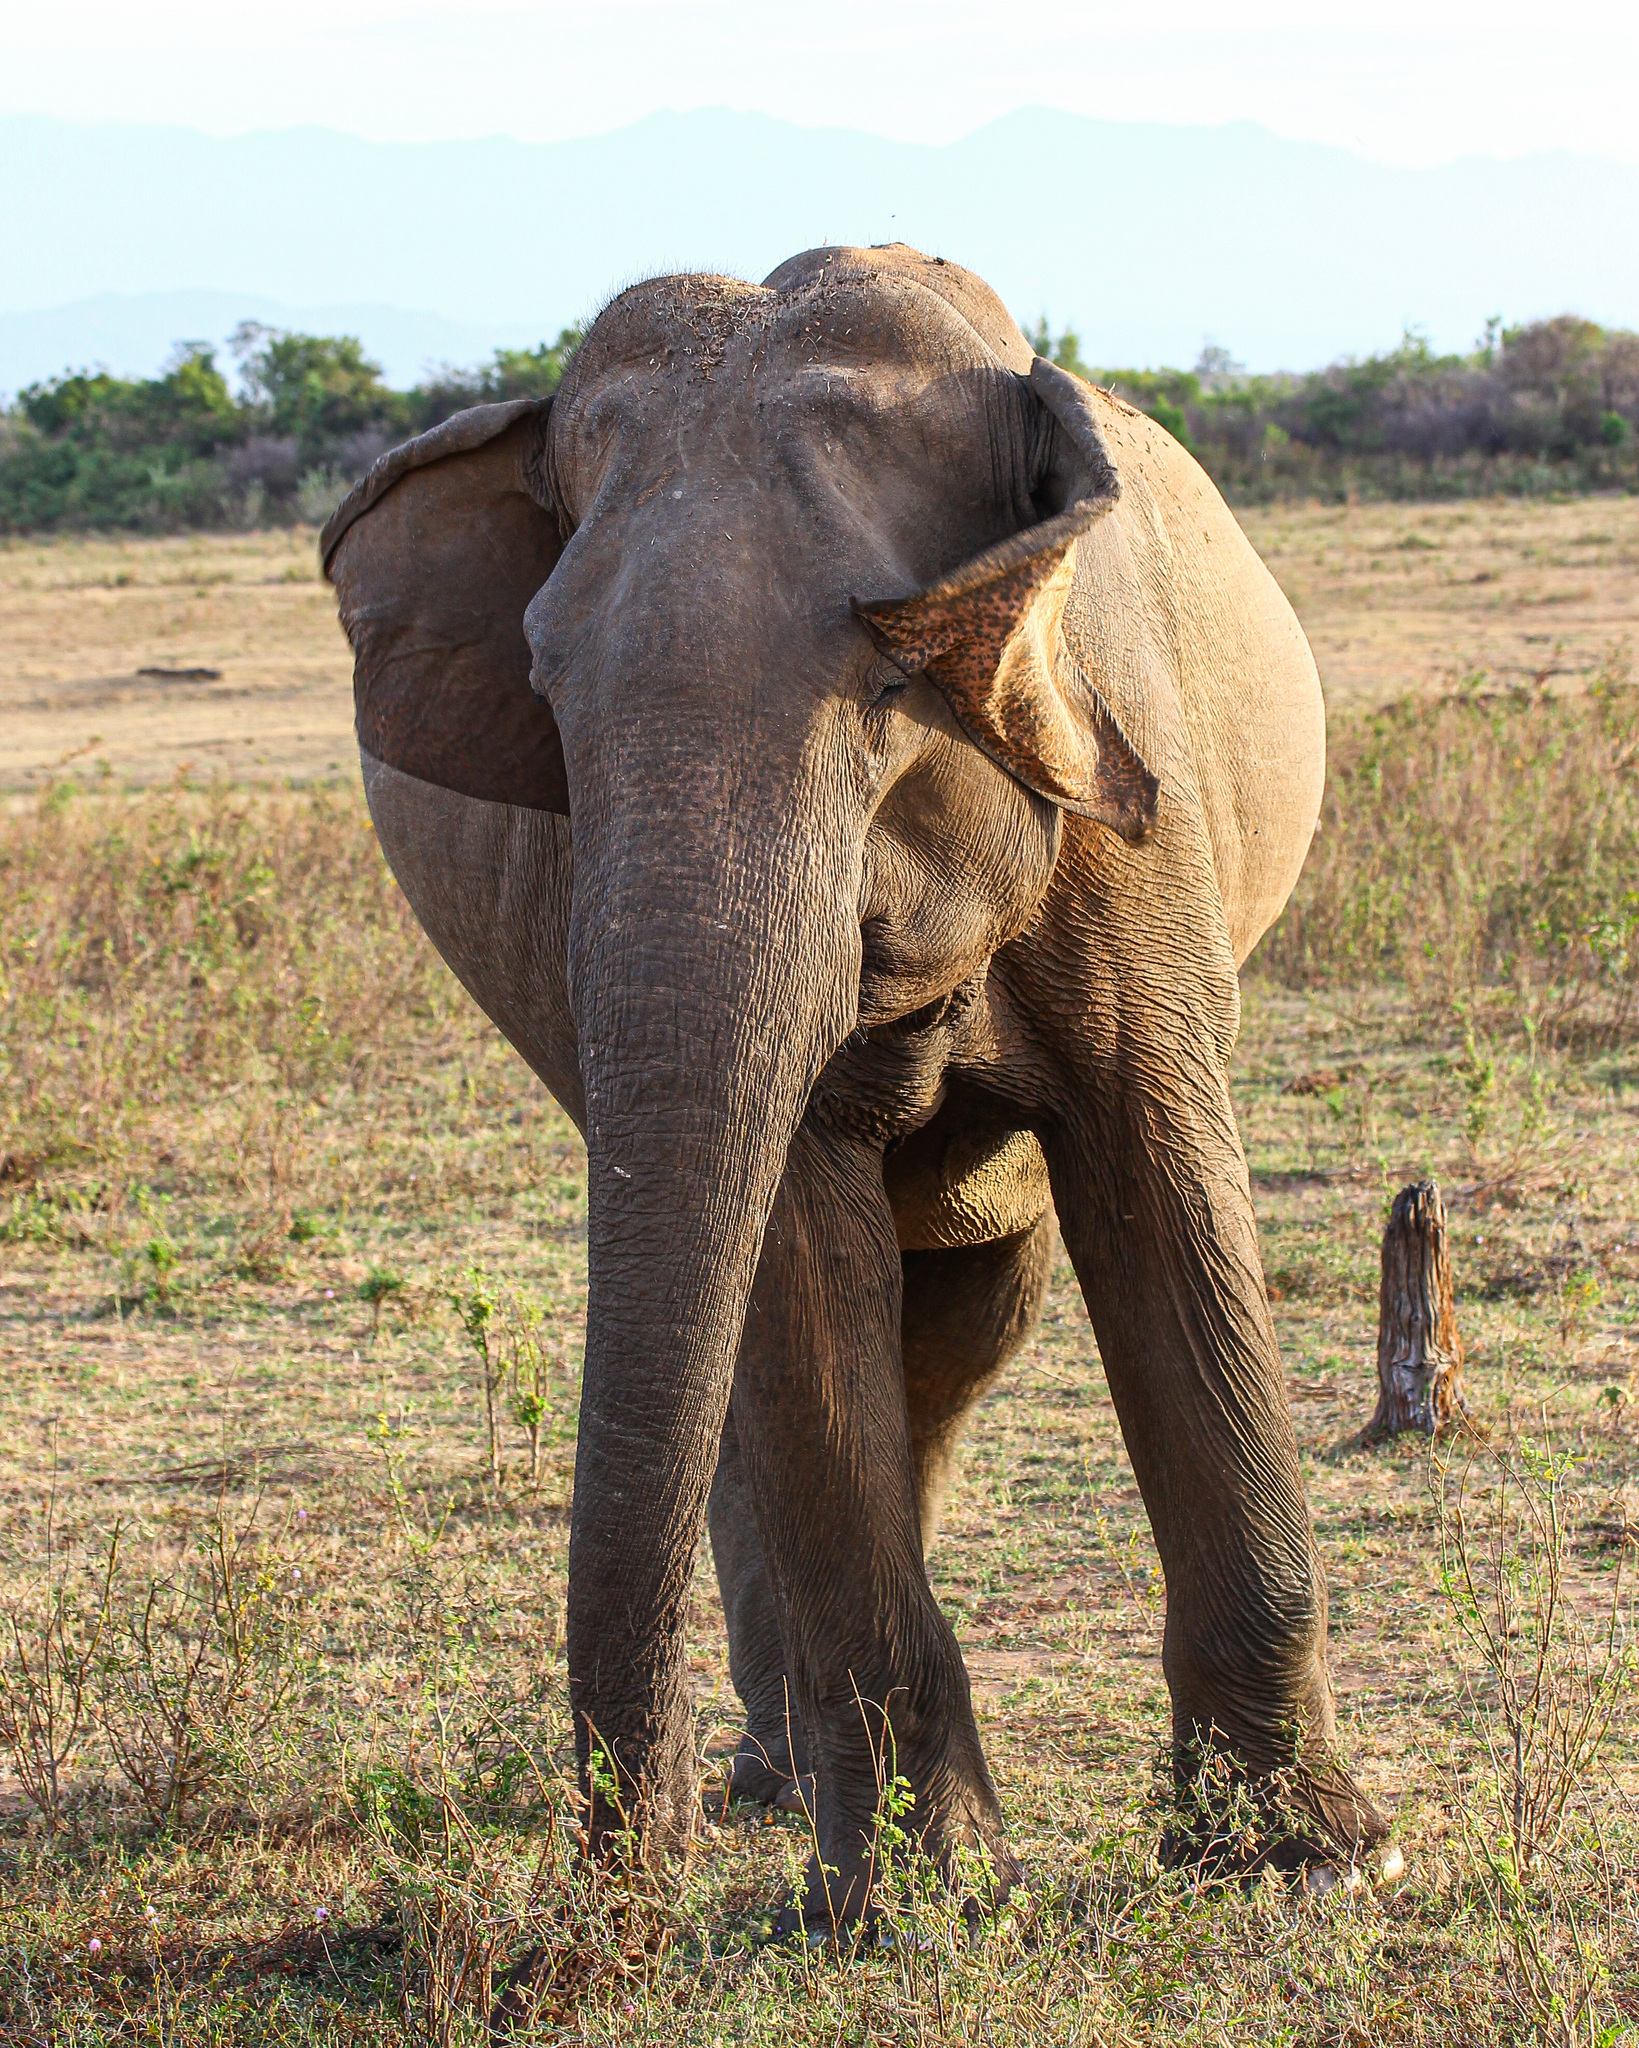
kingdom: Animalia
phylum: Chordata
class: Mammalia
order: Proboscidea
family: Elephantidae
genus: Elephas
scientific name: Elephas maximus
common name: Asian elephant
